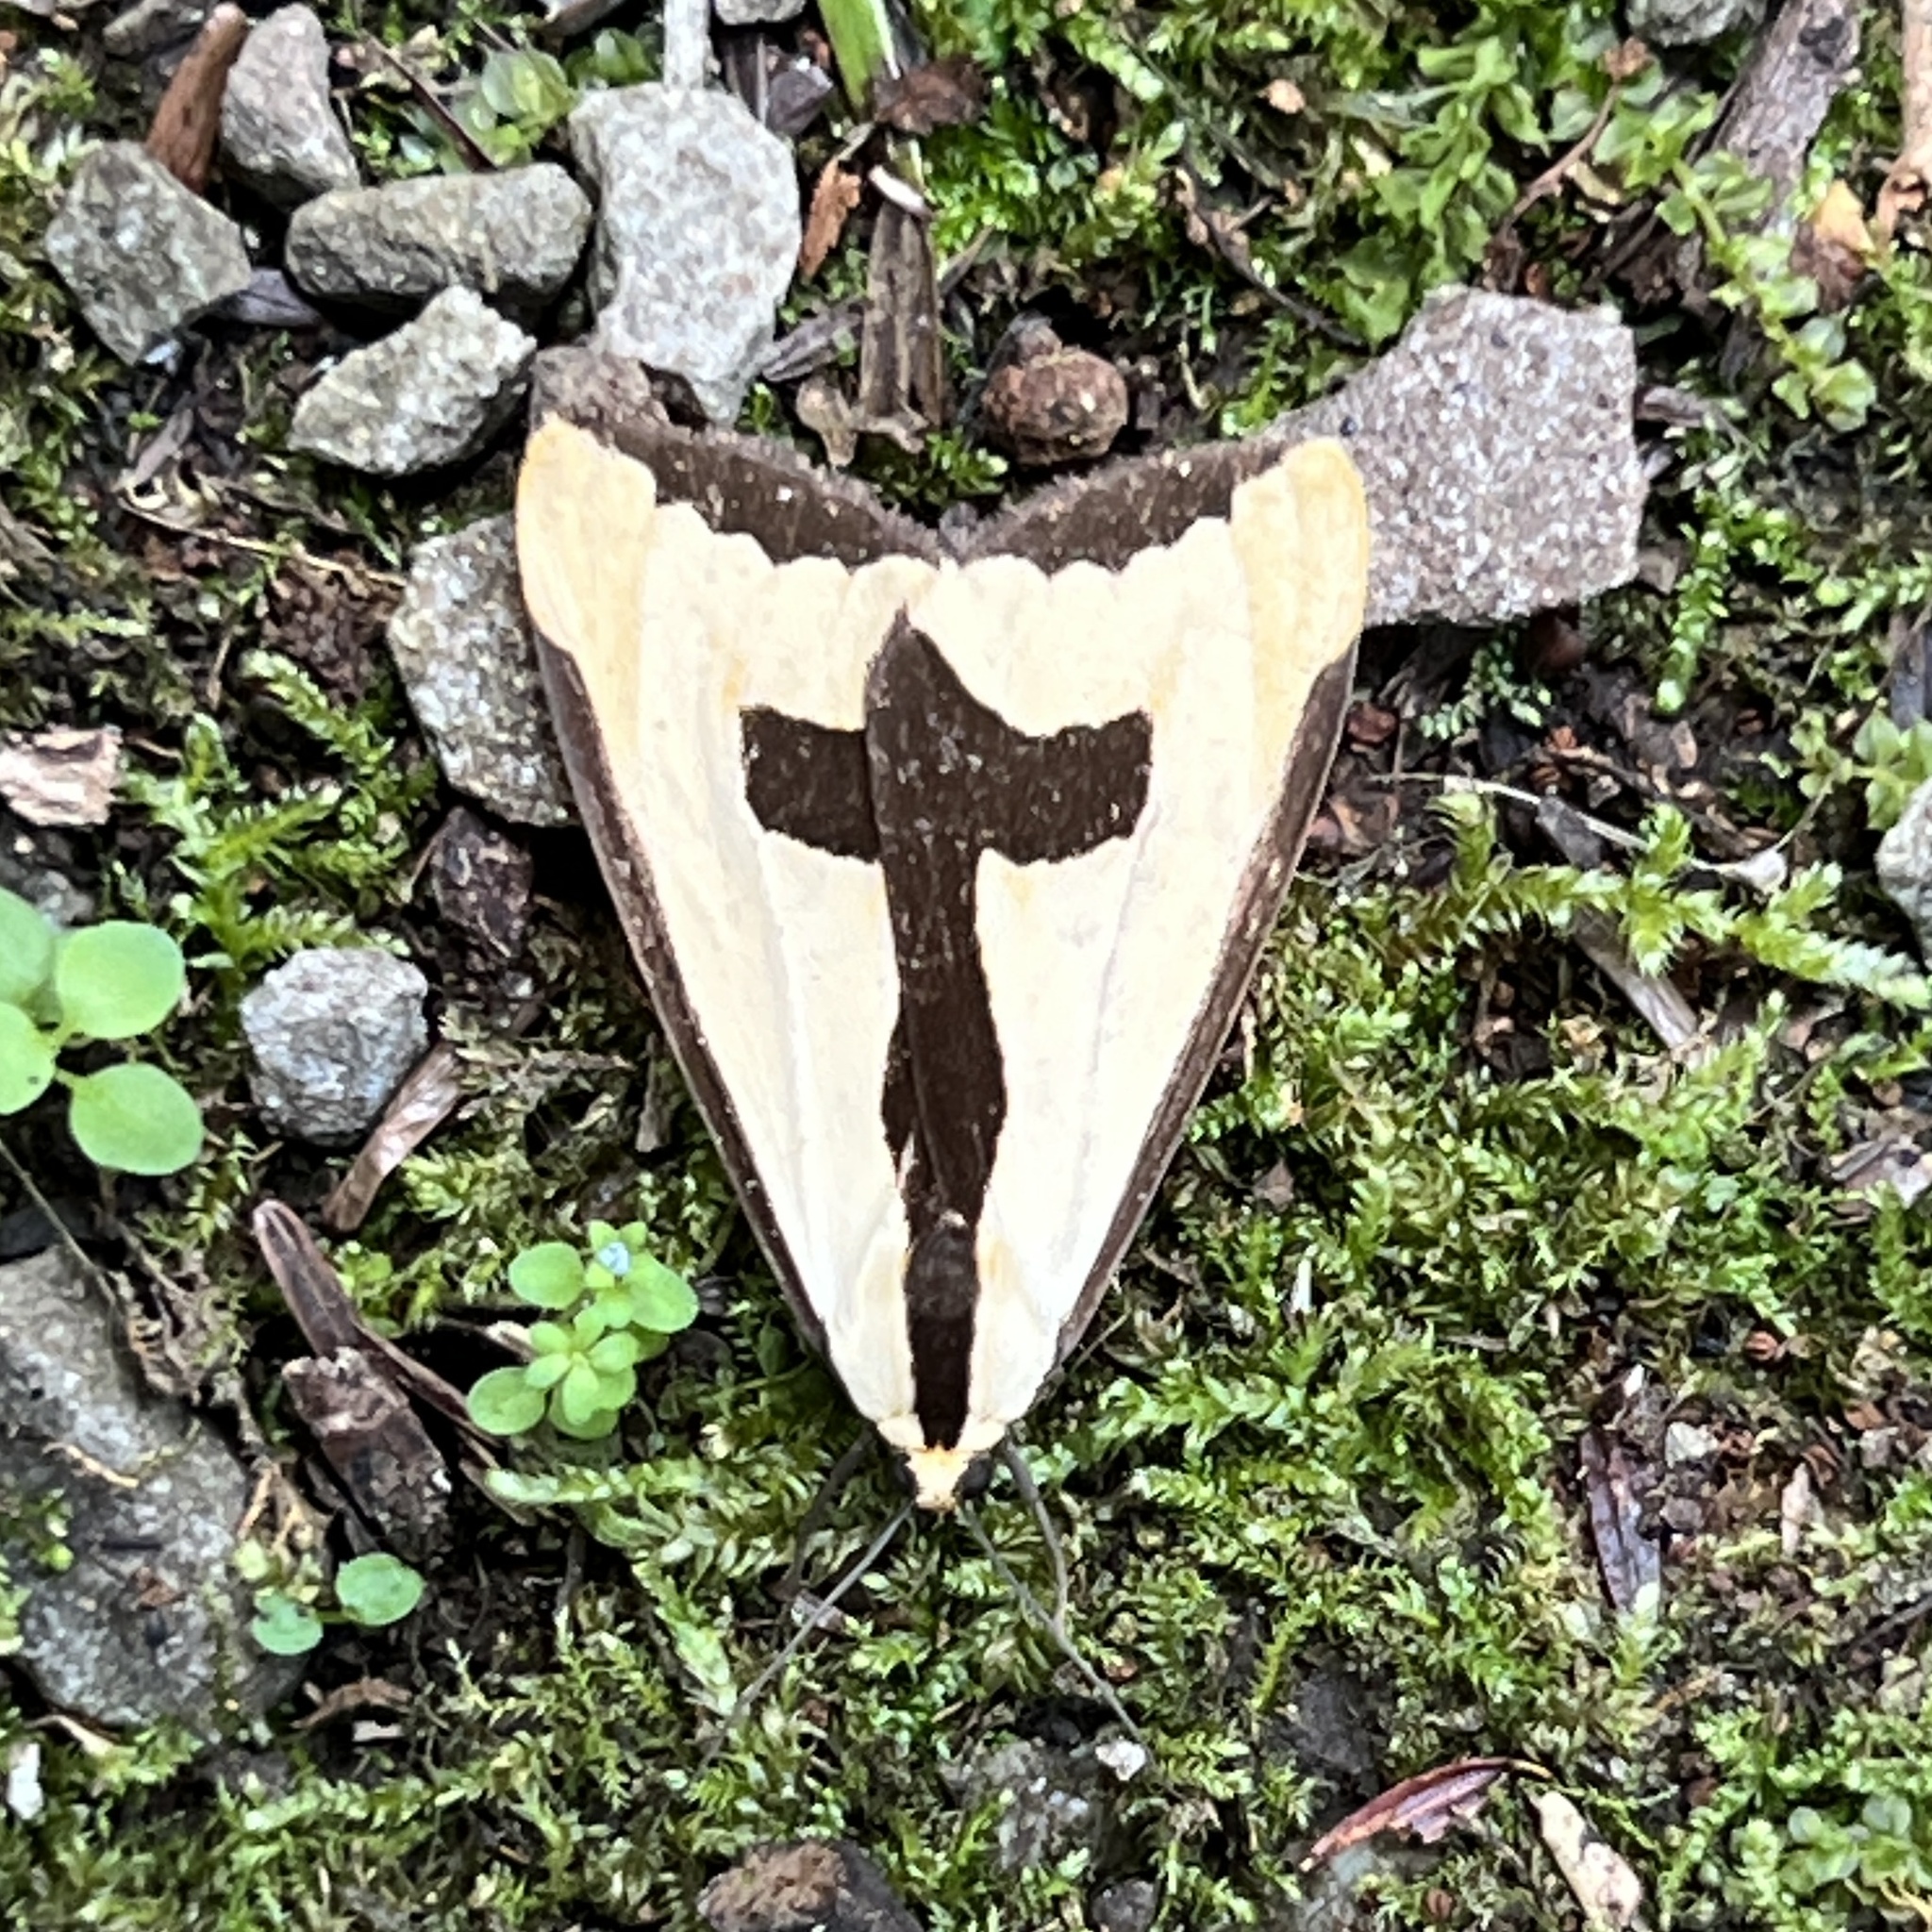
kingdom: Animalia
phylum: Arthropoda
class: Insecta
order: Lepidoptera
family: Erebidae
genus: Haploa
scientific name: Haploa clymene
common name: Clymene moth
